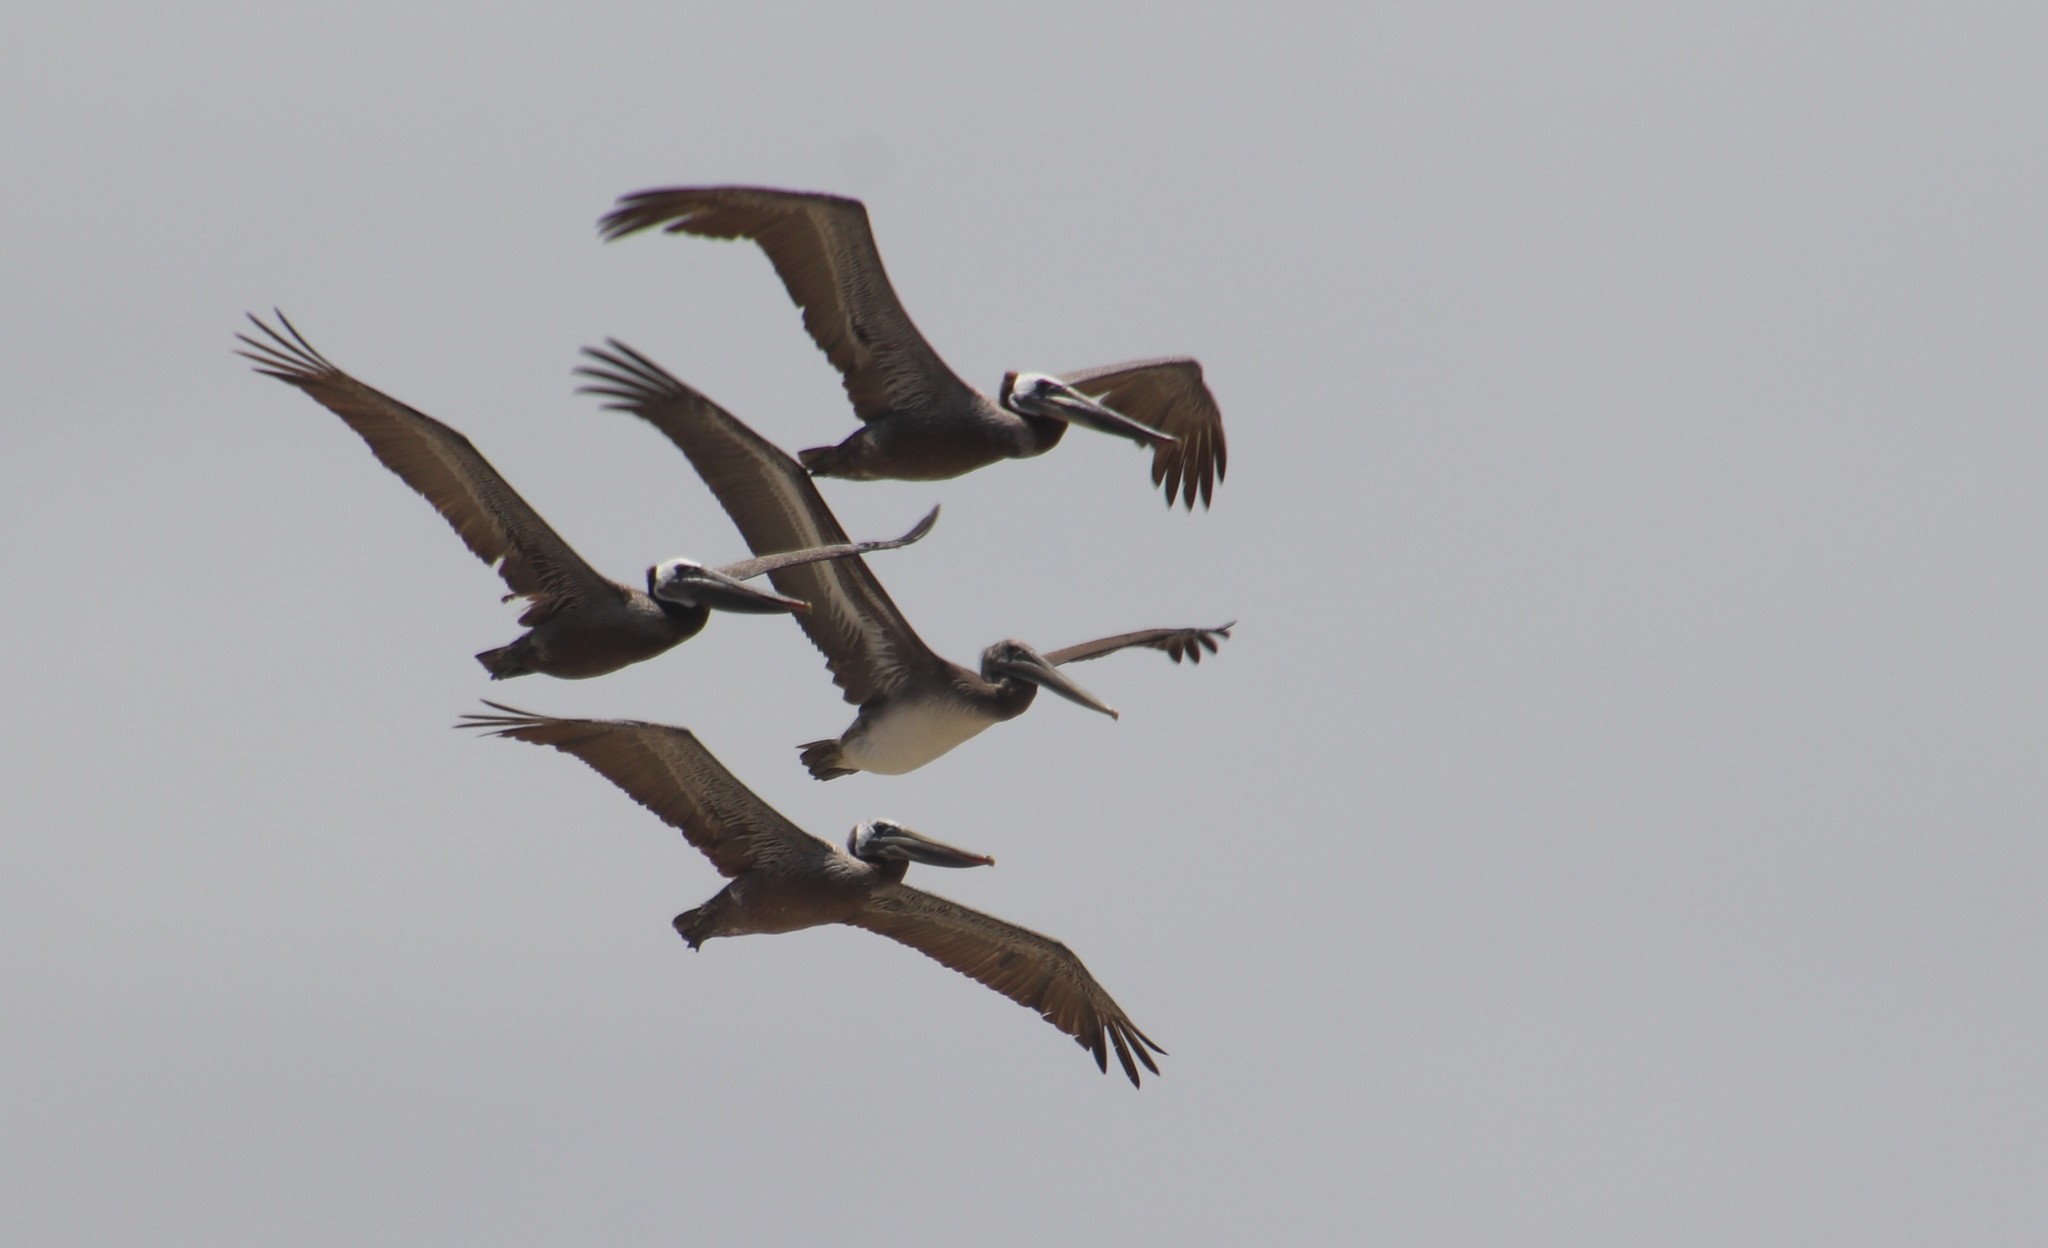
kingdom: Animalia
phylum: Chordata
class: Aves
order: Pelecaniformes
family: Pelecanidae
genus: Pelecanus
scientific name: Pelecanus occidentalis
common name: Brown pelican
